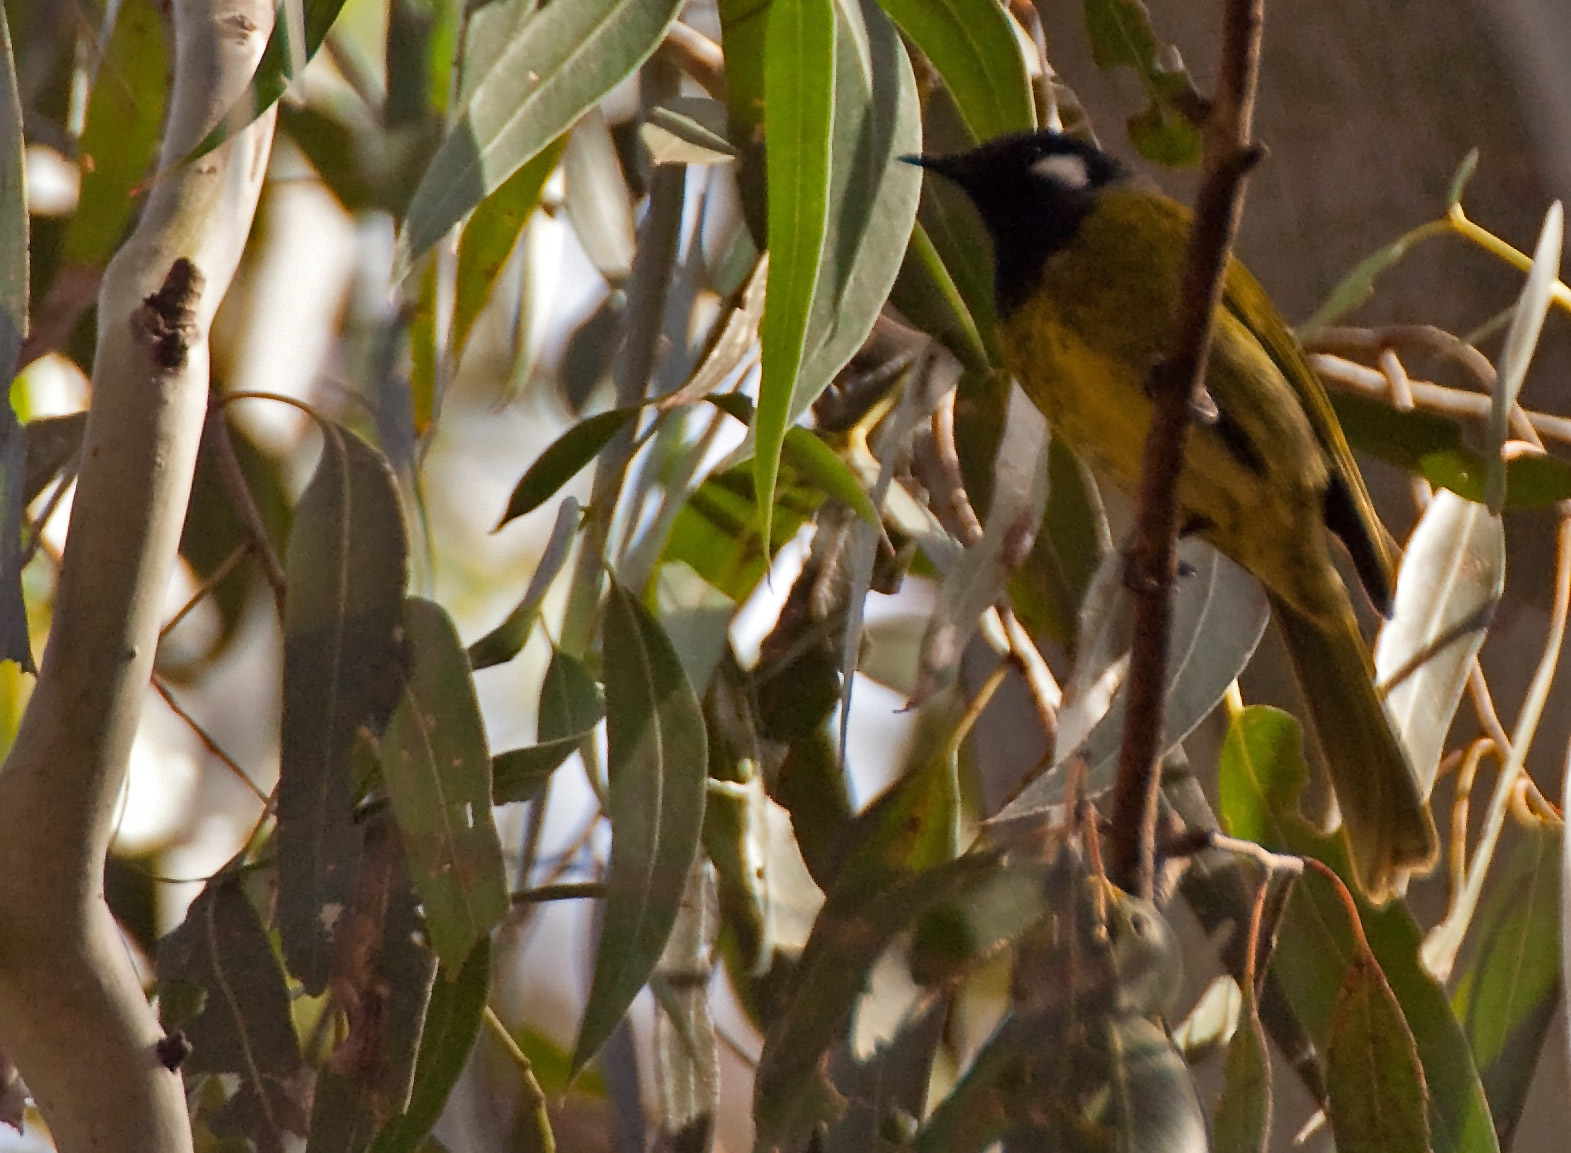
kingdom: Animalia
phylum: Chordata
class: Aves
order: Passeriformes
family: Meliphagidae
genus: Nesoptilotis
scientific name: Nesoptilotis leucotis
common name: White-eared honeyeater
